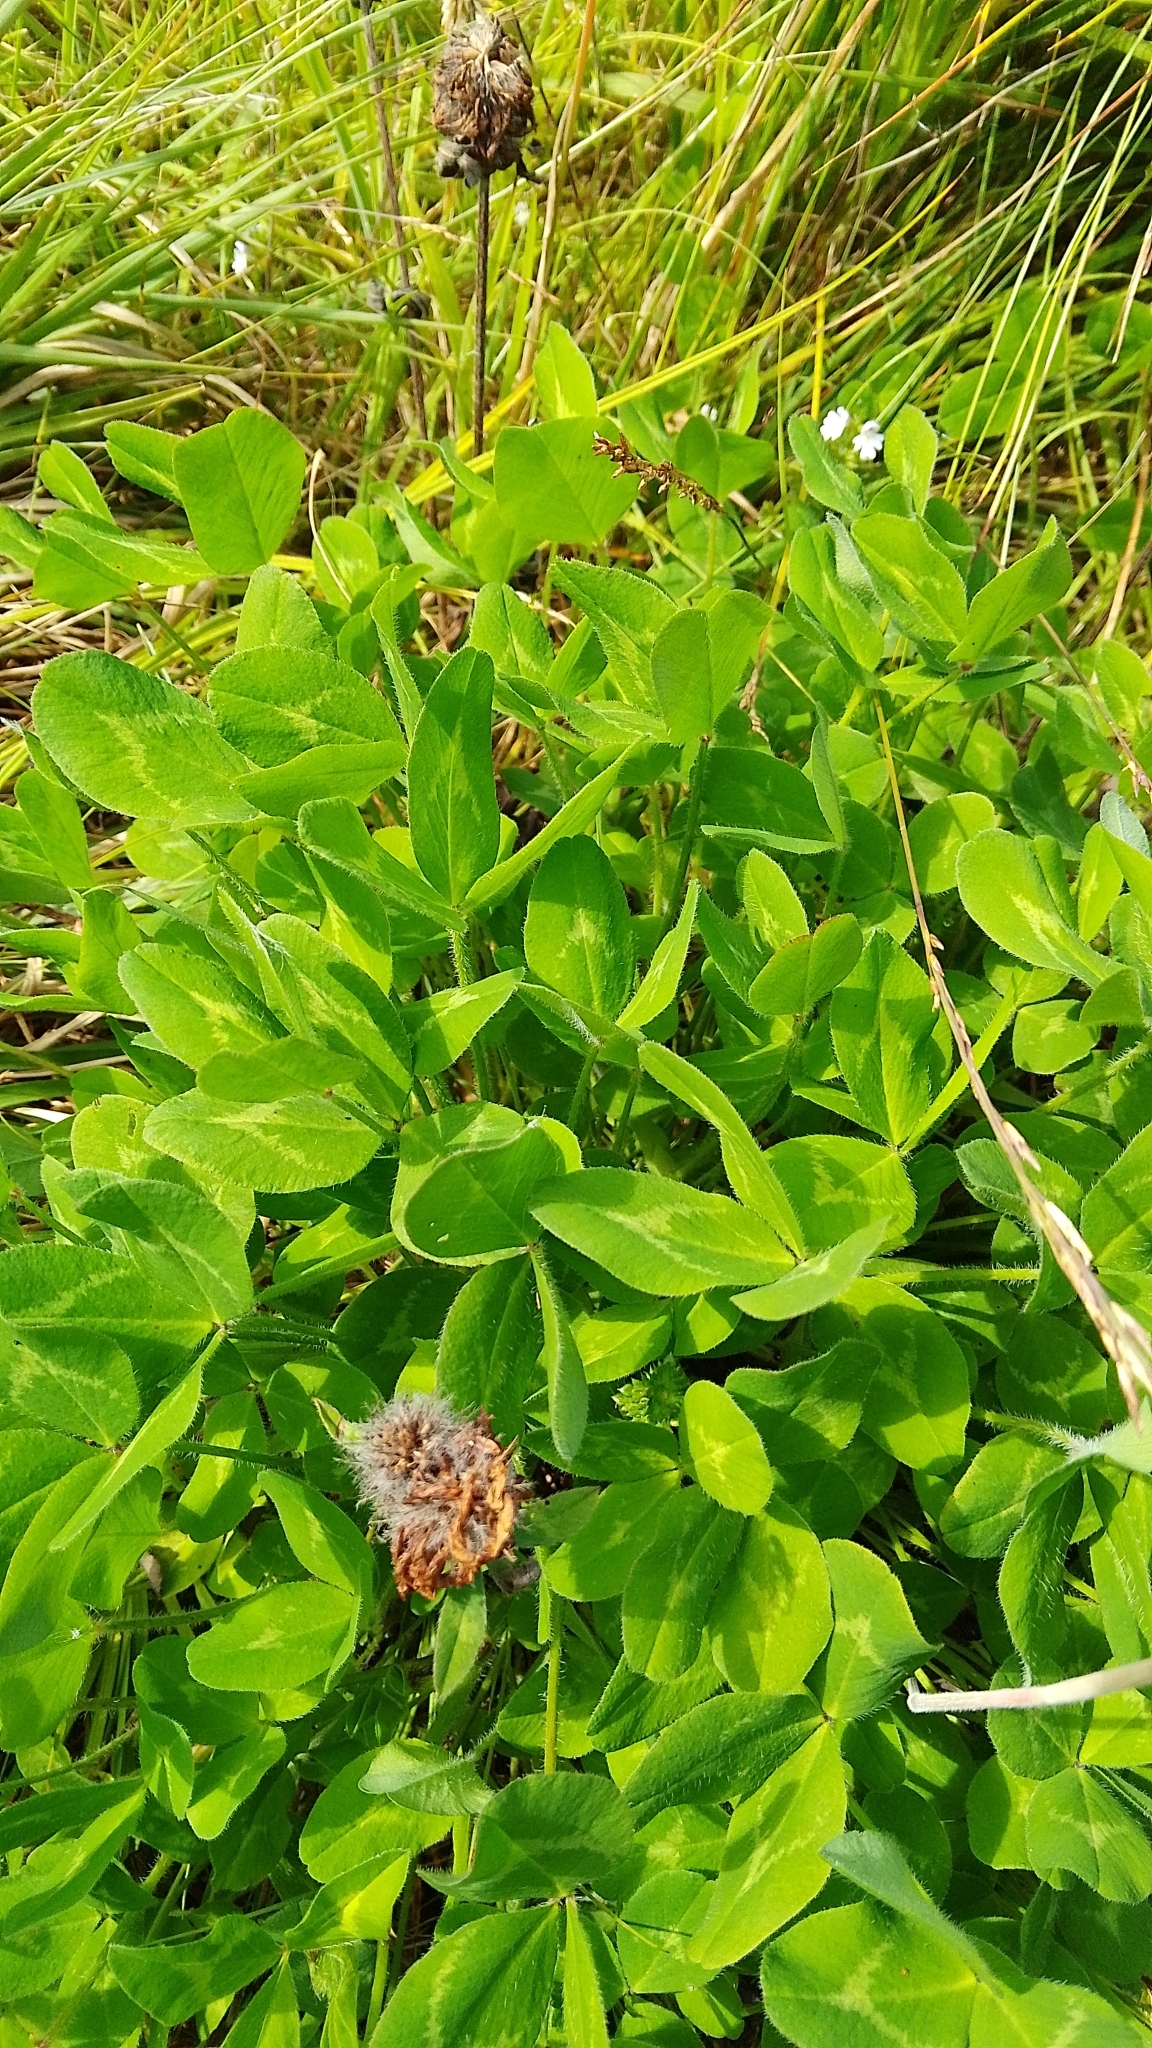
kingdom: Plantae
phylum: Tracheophyta
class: Magnoliopsida
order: Fabales
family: Fabaceae
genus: Trifolium
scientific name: Trifolium pratense
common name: Red clover
